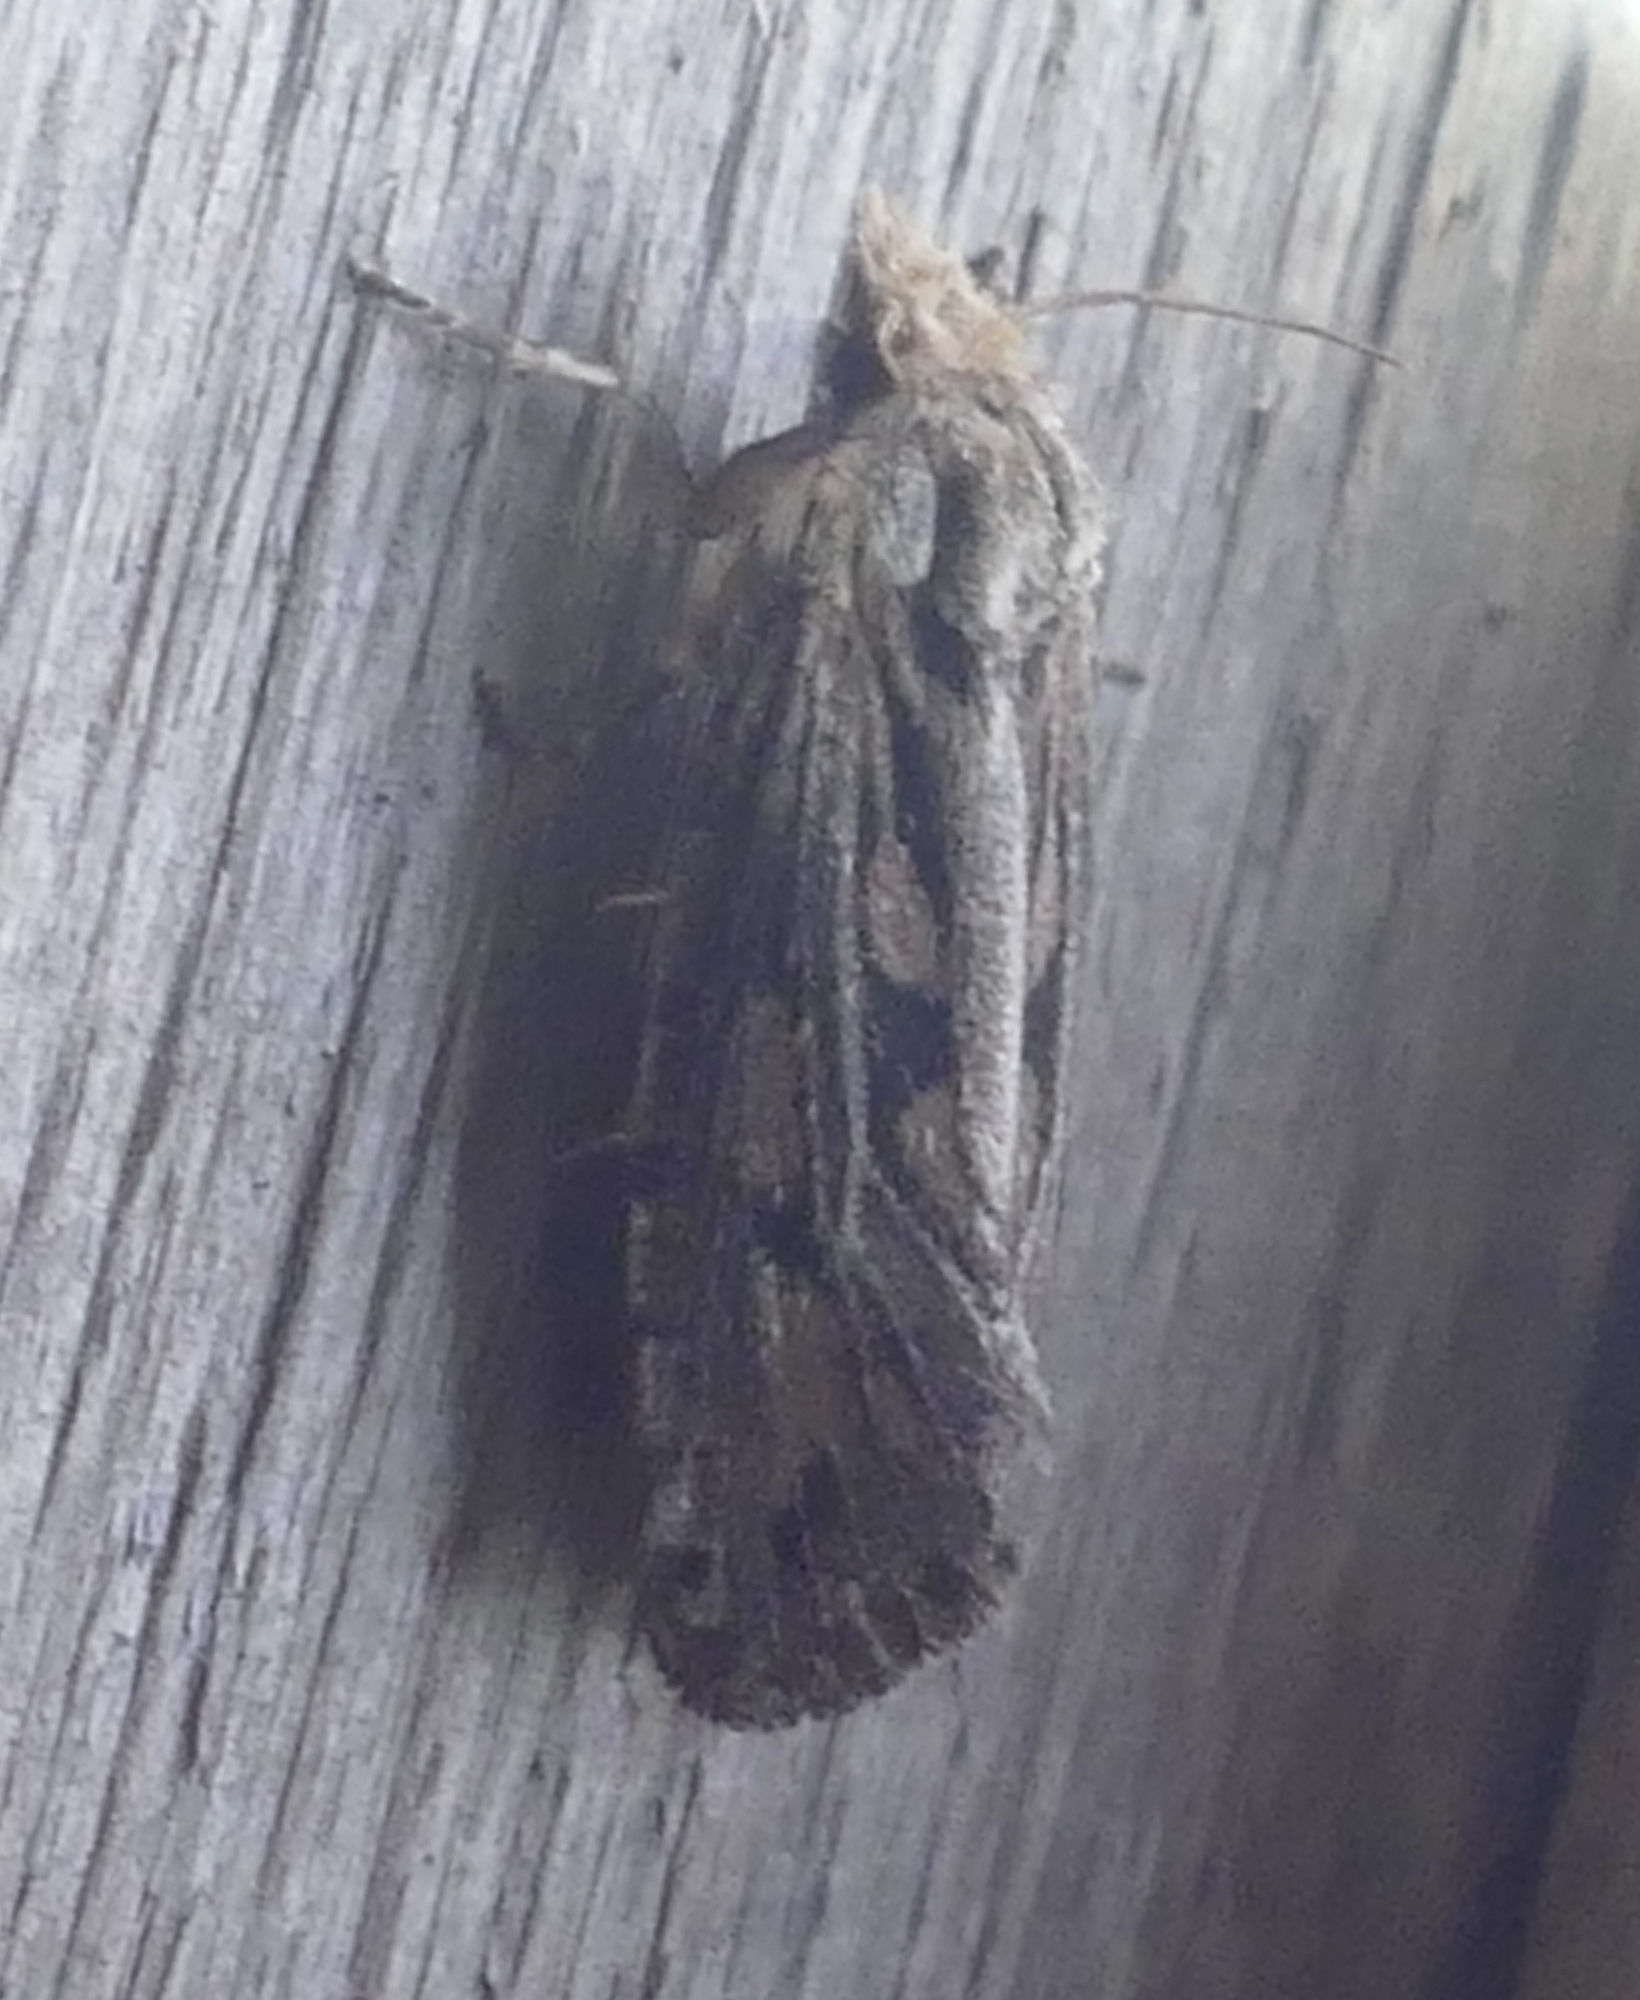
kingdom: Animalia
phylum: Arthropoda
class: Insecta
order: Lepidoptera
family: Tineidae
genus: Acrolophus
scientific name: Acrolophus popeanella
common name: Clemens' grass tubeworm moth
